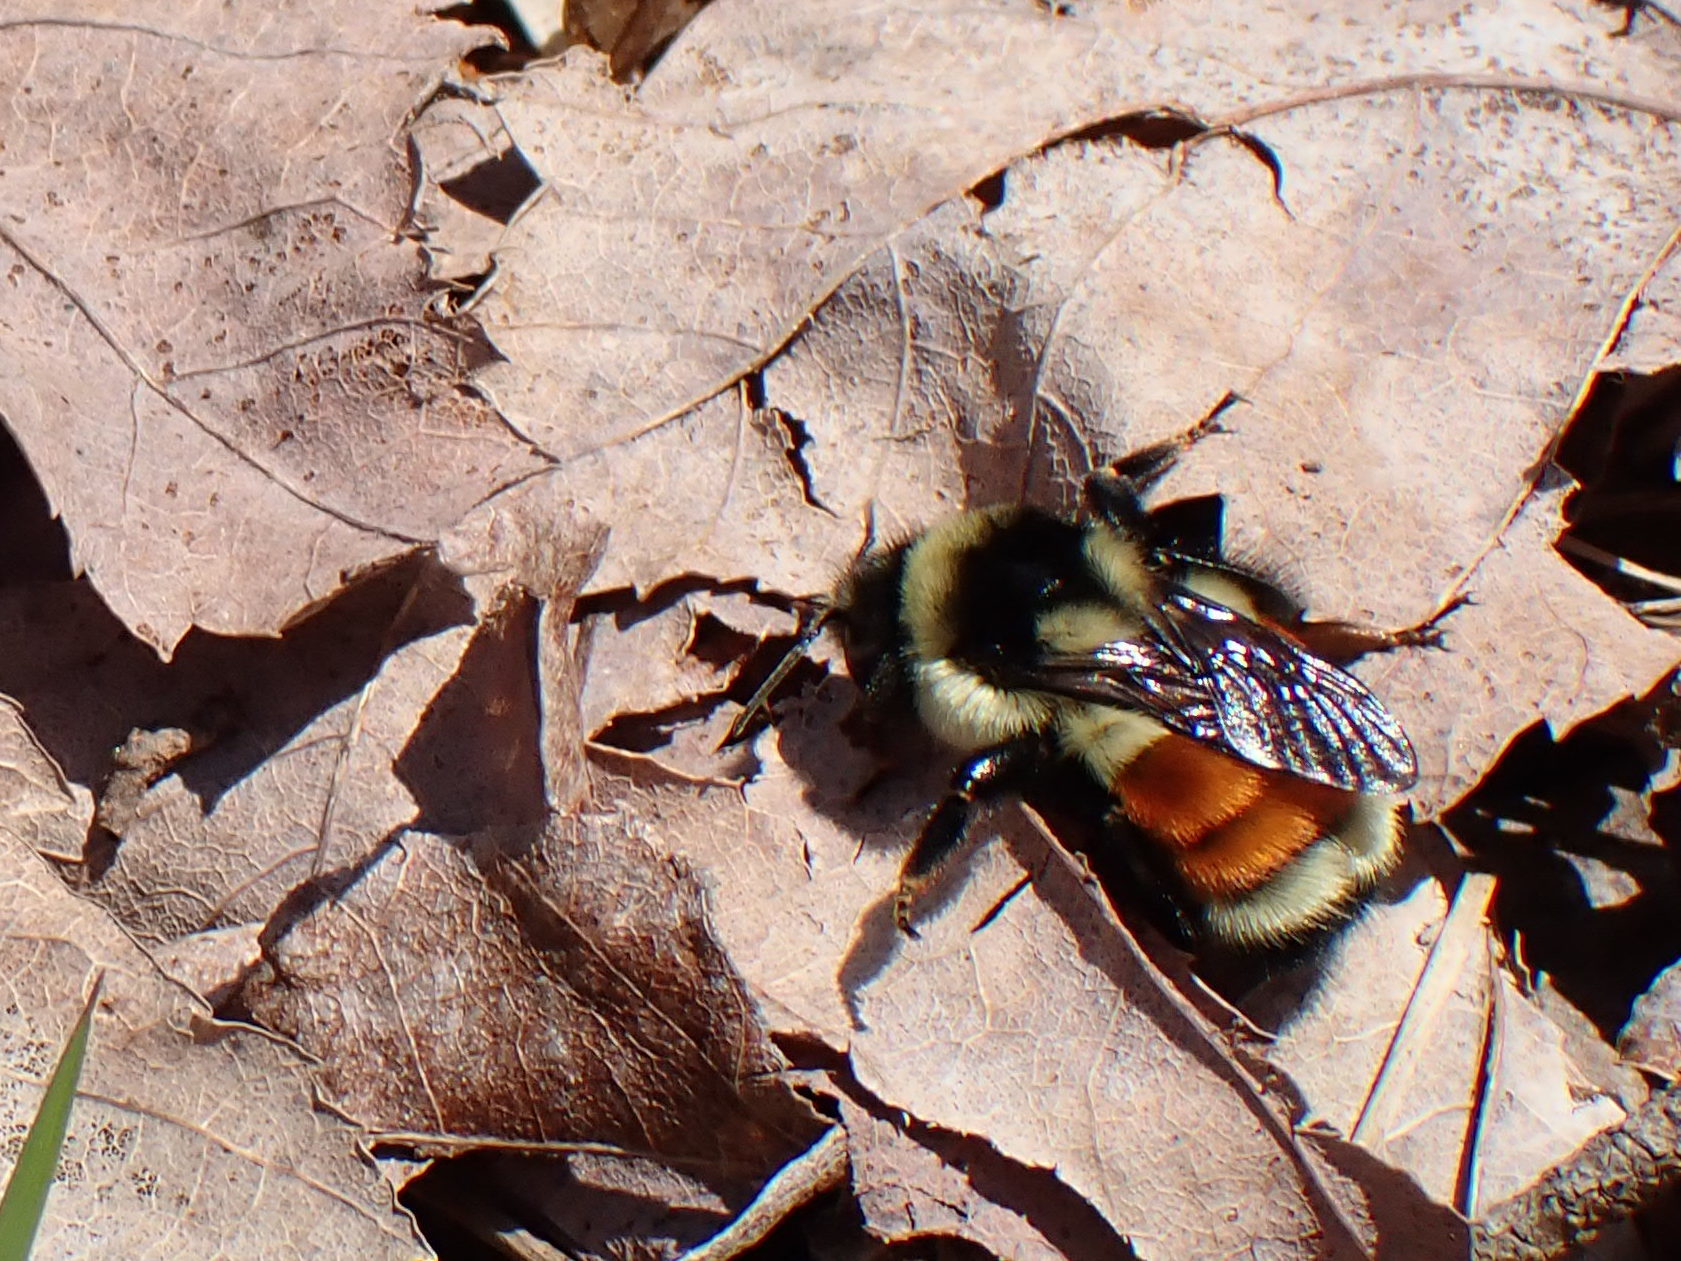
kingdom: Animalia
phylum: Arthropoda
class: Insecta
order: Hymenoptera
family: Apidae
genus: Bombus
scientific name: Bombus ternarius
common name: Tri-colored bumble bee
